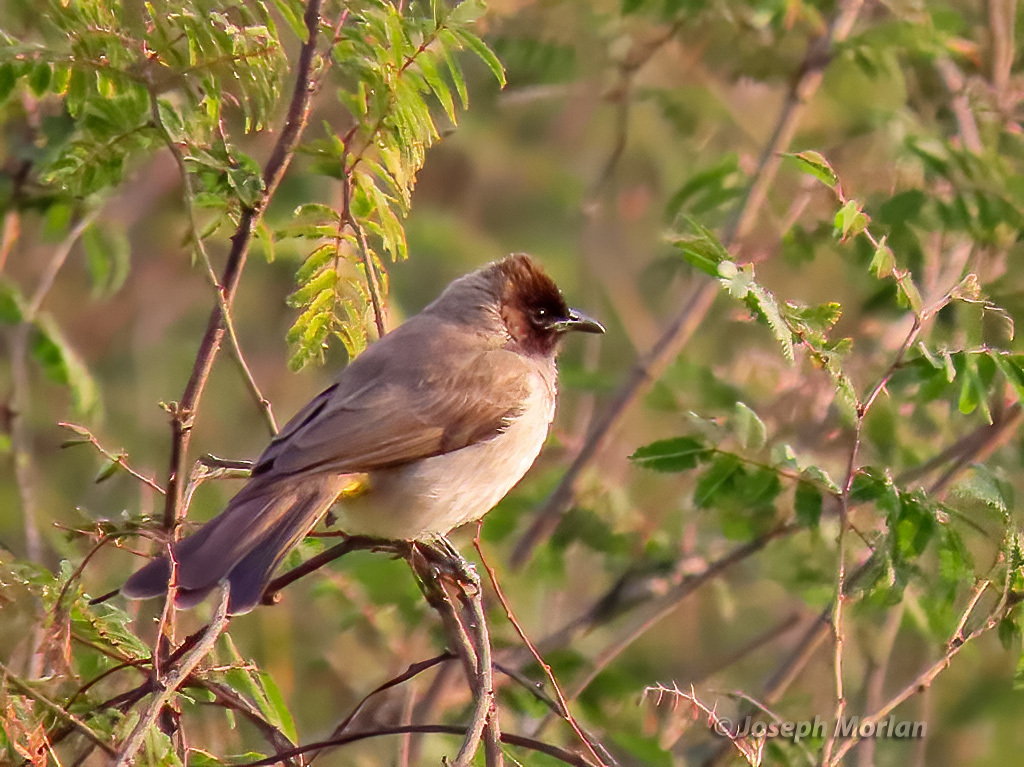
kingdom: Animalia
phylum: Chordata
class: Aves
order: Passeriformes
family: Pycnonotidae
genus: Pycnonotus
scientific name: Pycnonotus barbatus
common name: Common bulbul
